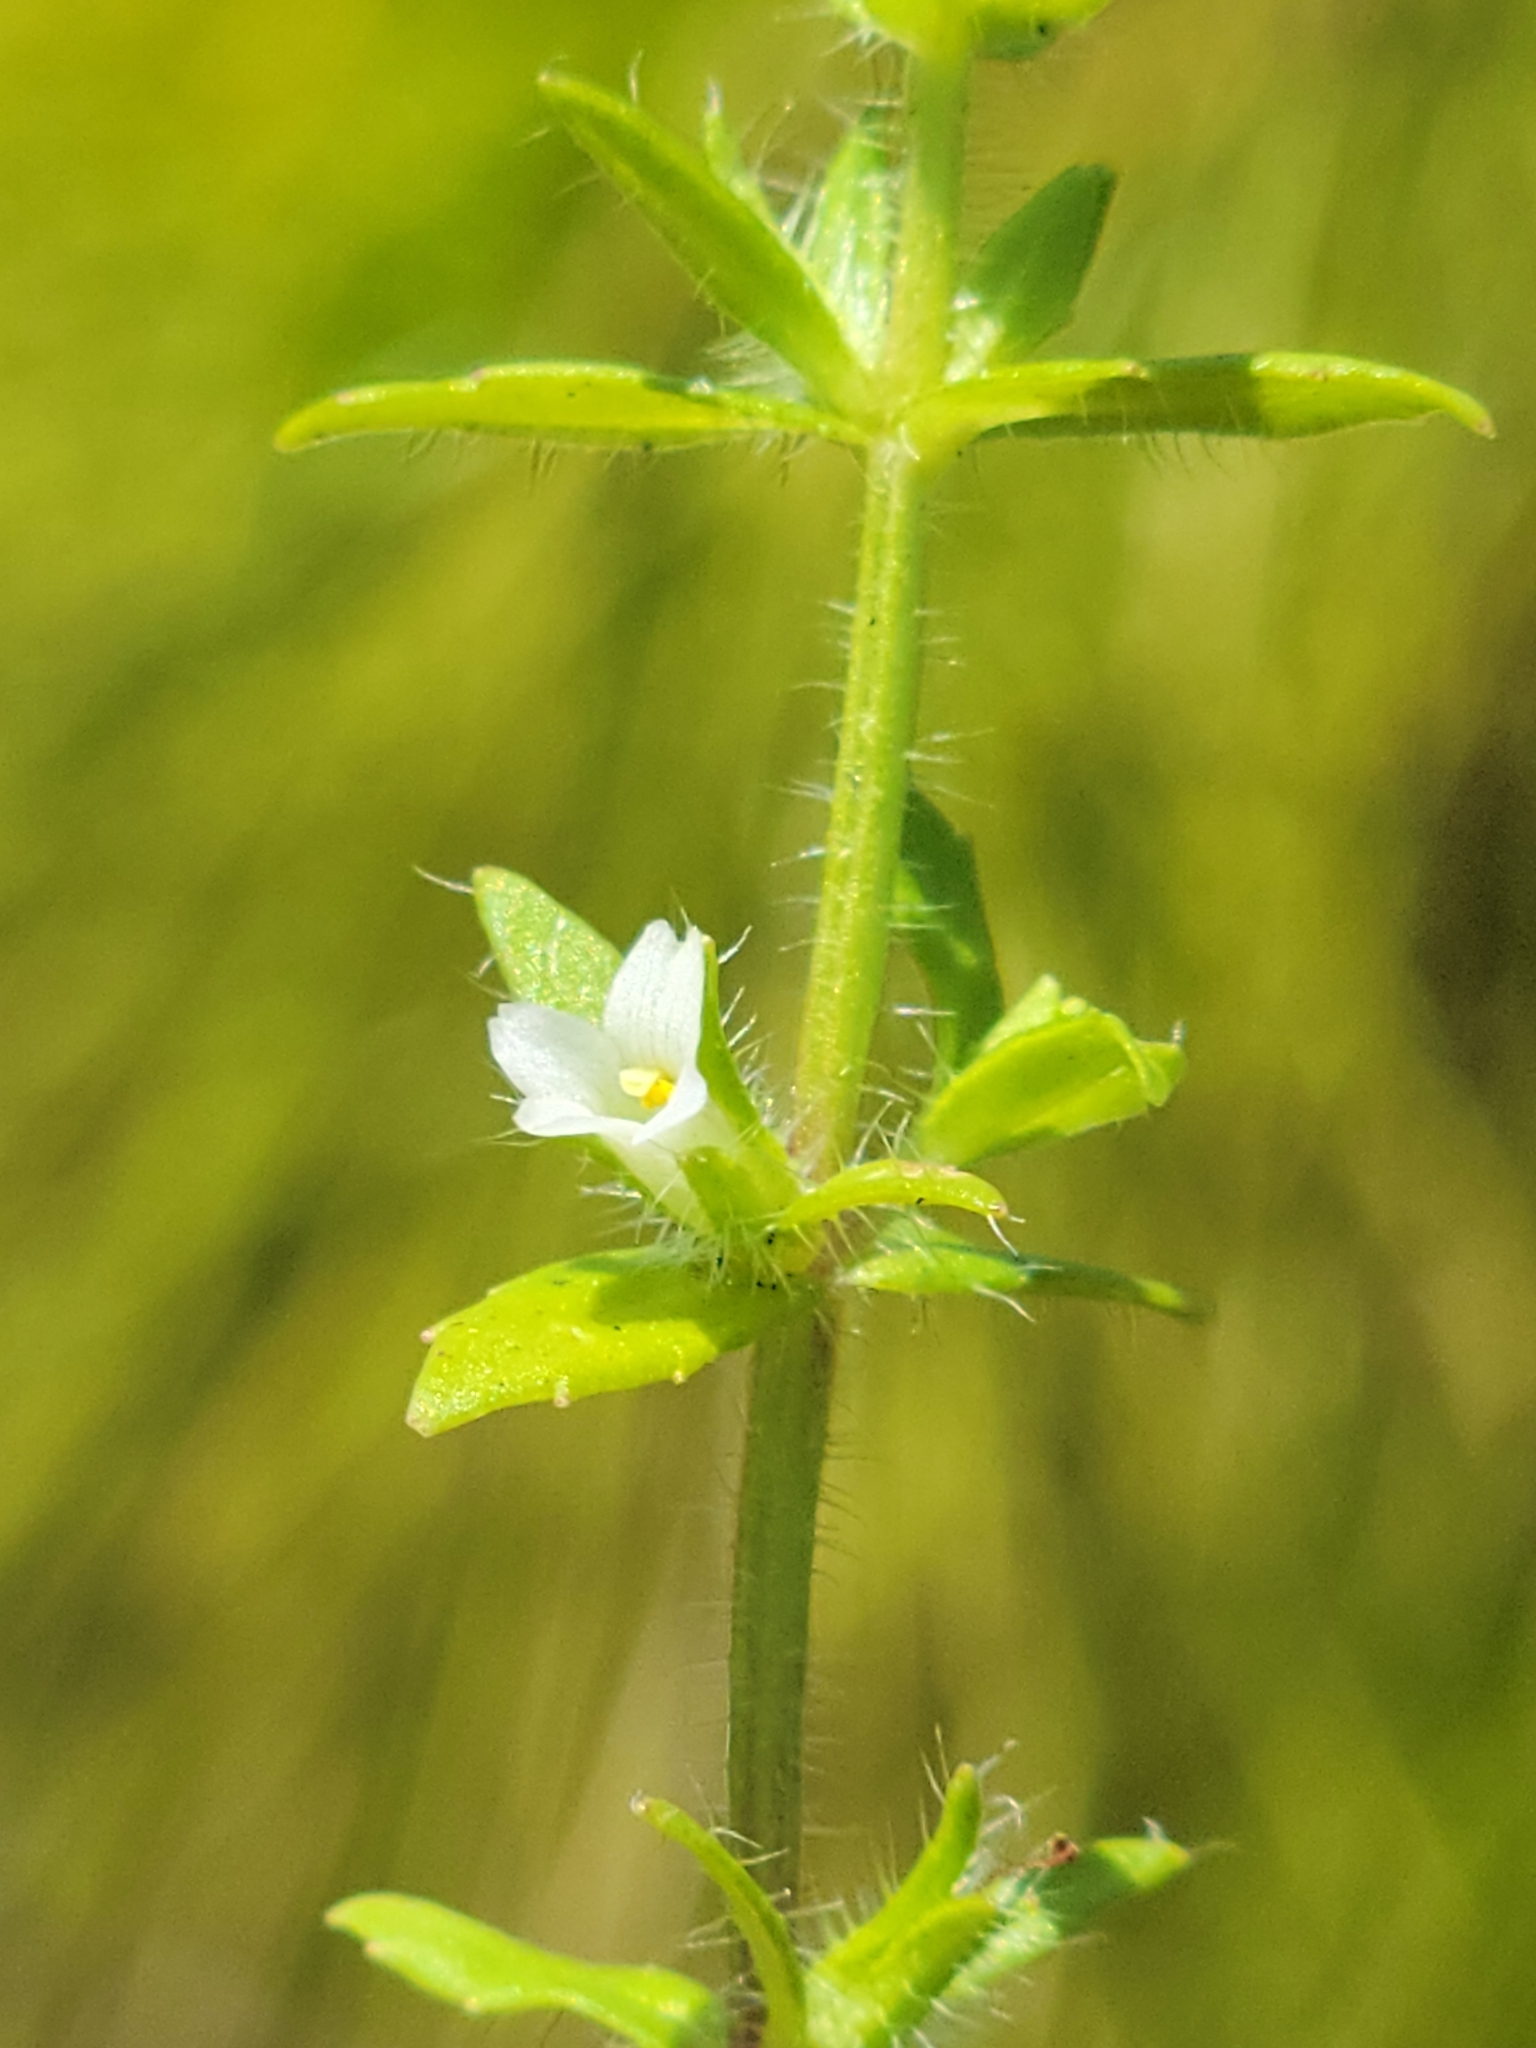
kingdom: Plantae
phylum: Tracheophyta
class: Magnoliopsida
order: Lamiales
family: Plantaginaceae
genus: Gratiola
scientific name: Gratiola pilosa
